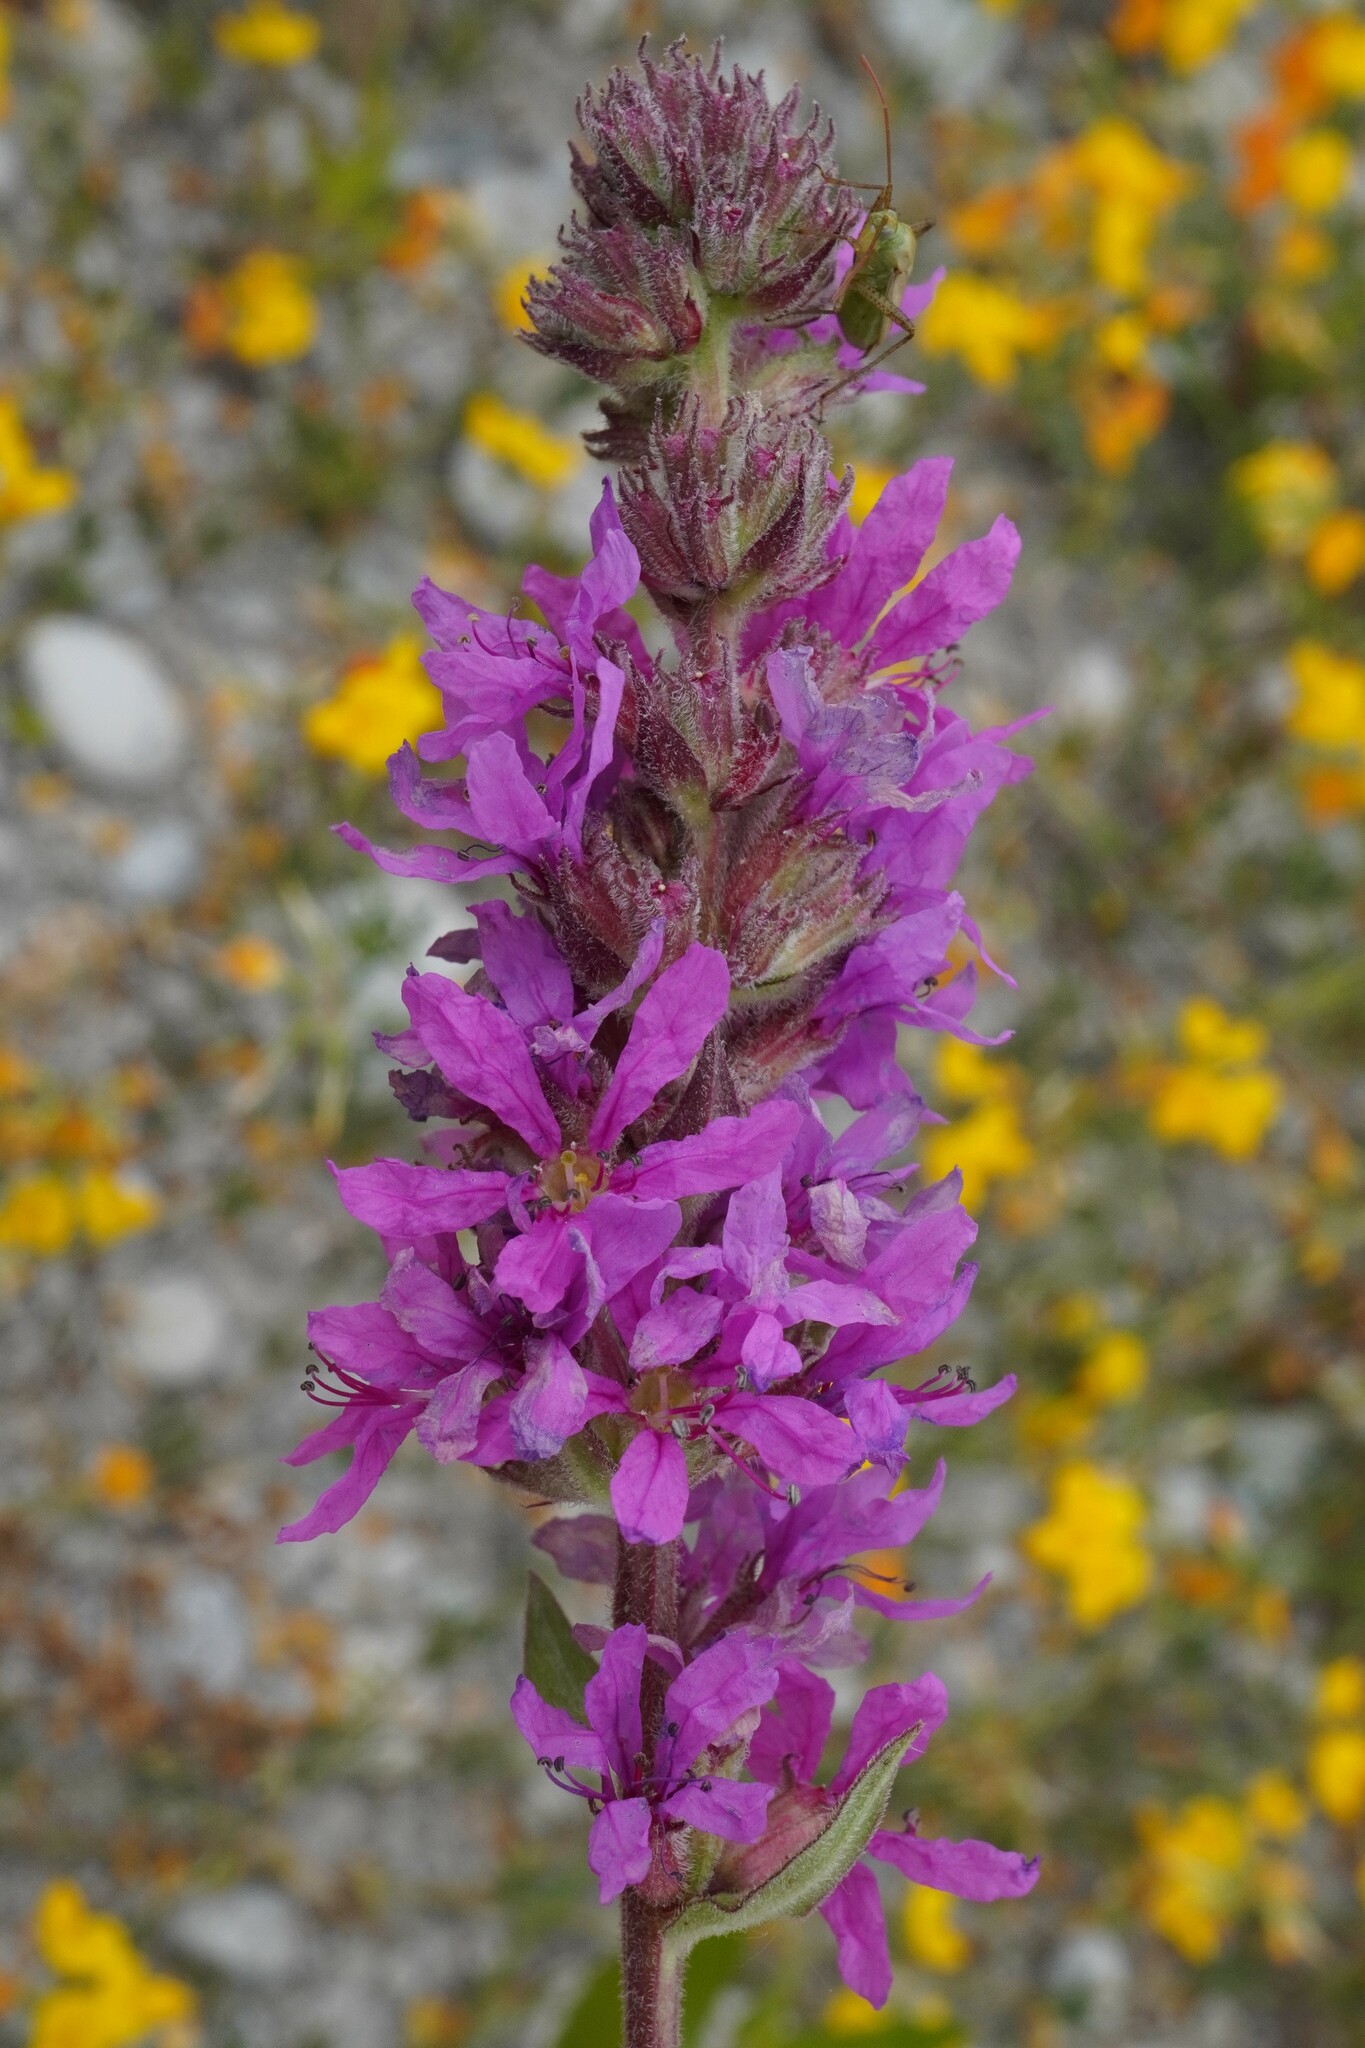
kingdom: Plantae
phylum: Tracheophyta
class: Magnoliopsida
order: Myrtales
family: Lythraceae
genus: Lythrum
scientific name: Lythrum salicaria
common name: Purple loosestrife
